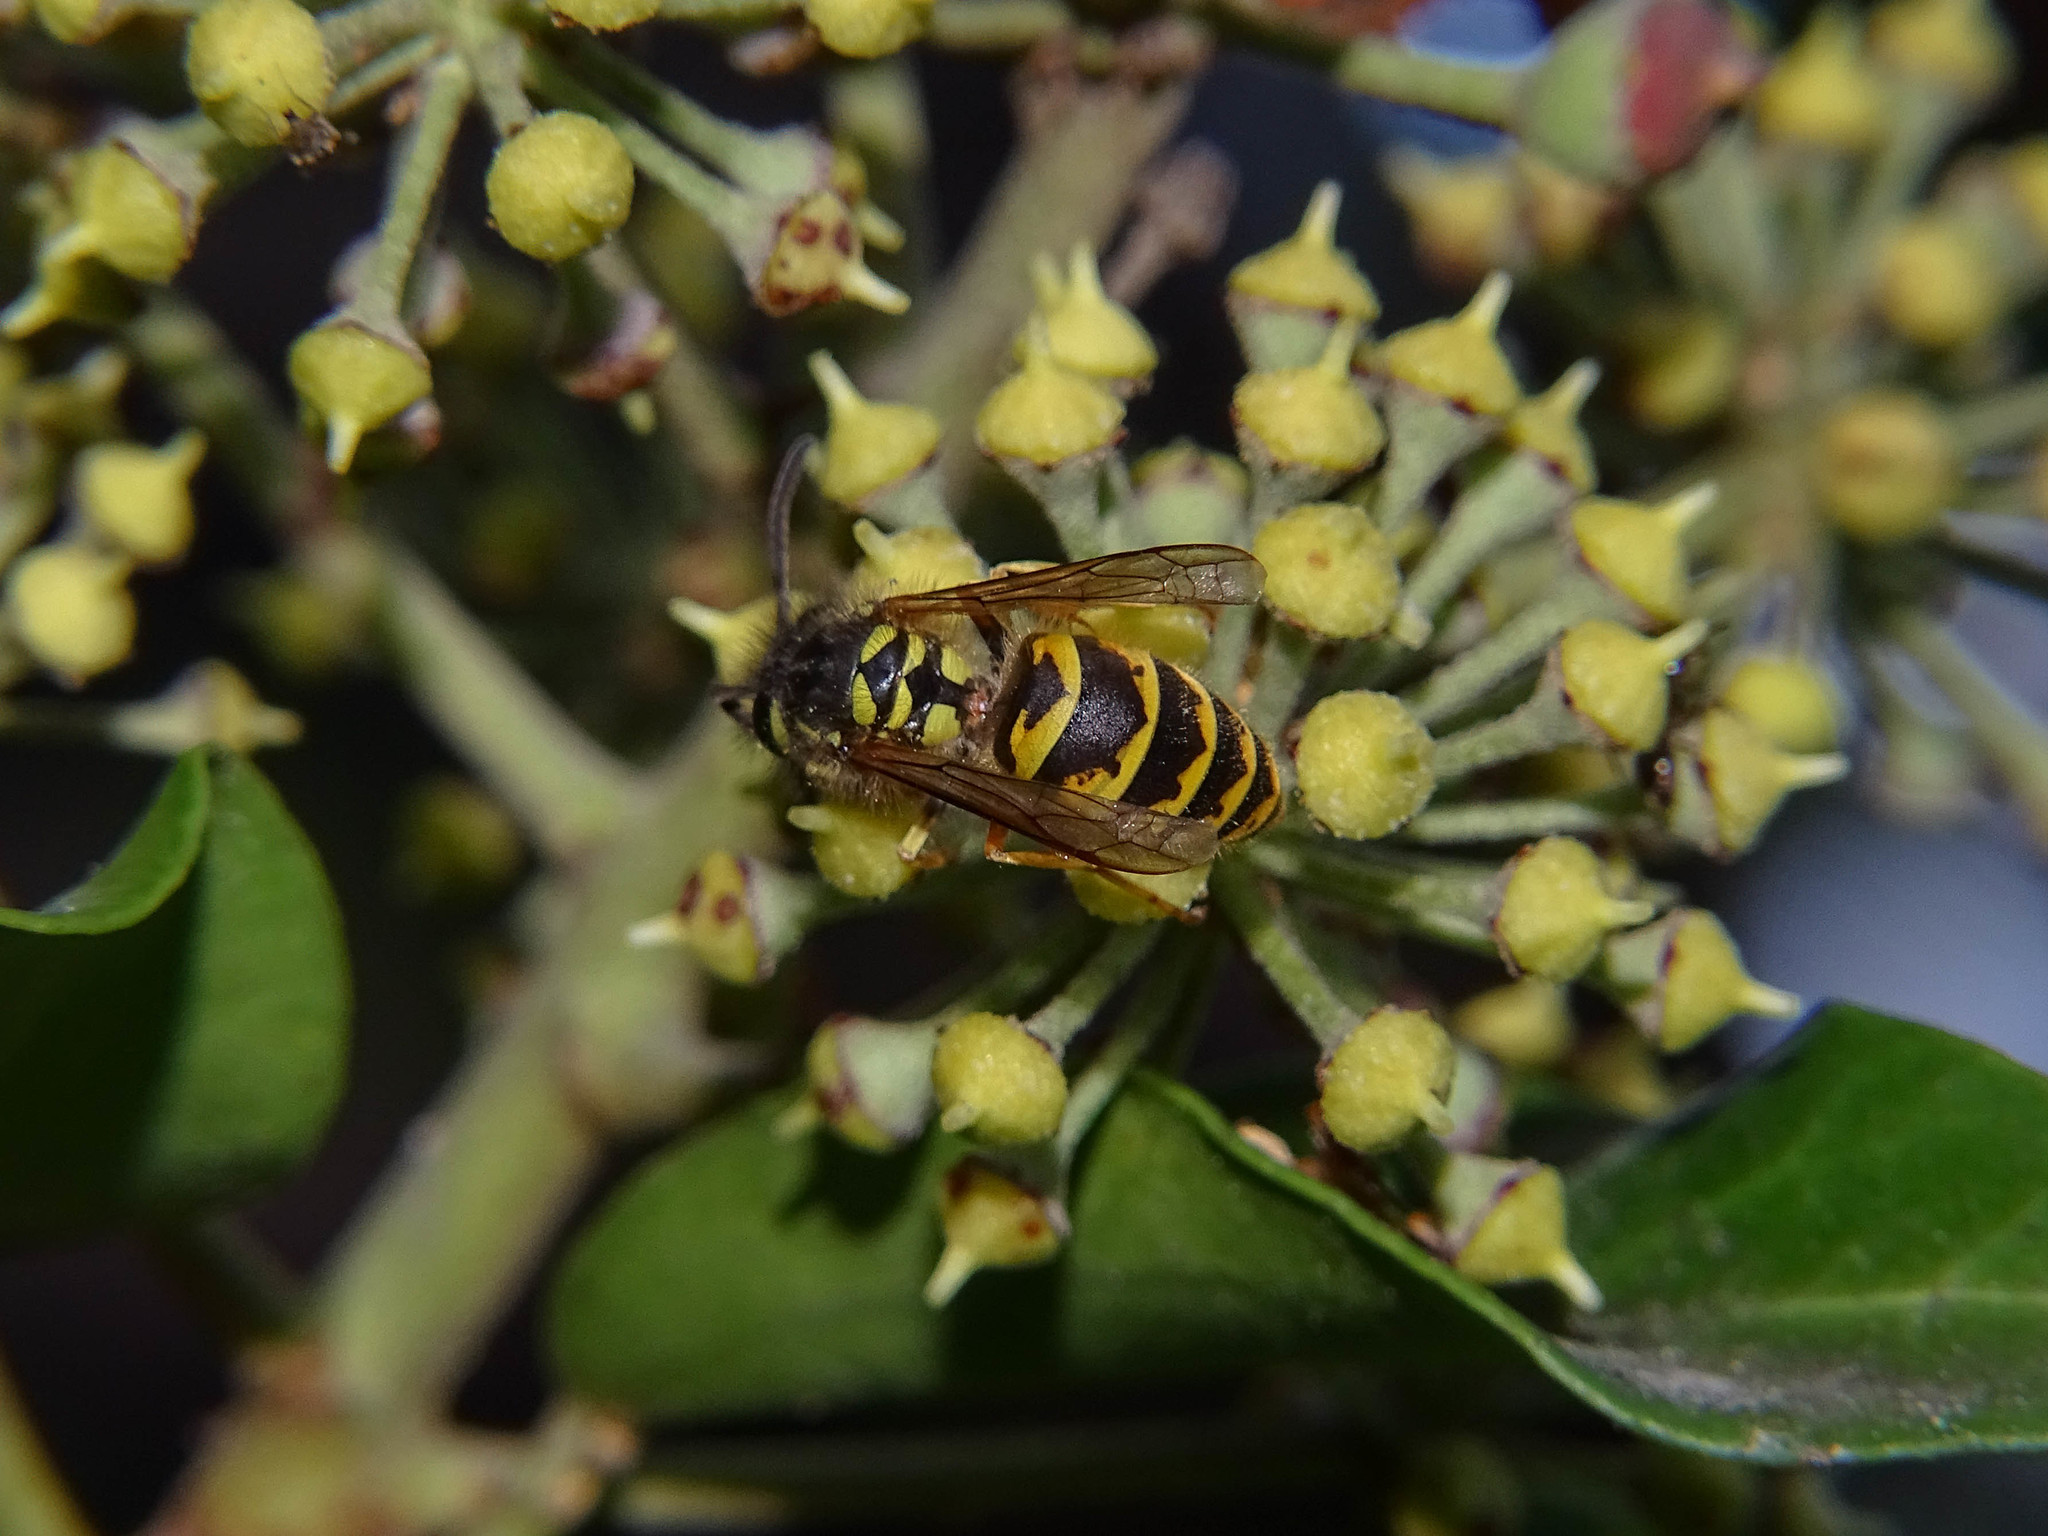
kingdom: Animalia
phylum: Arthropoda
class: Insecta
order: Hymenoptera
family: Vespidae
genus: Vespula
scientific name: Vespula vulgaris
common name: Common wasp
